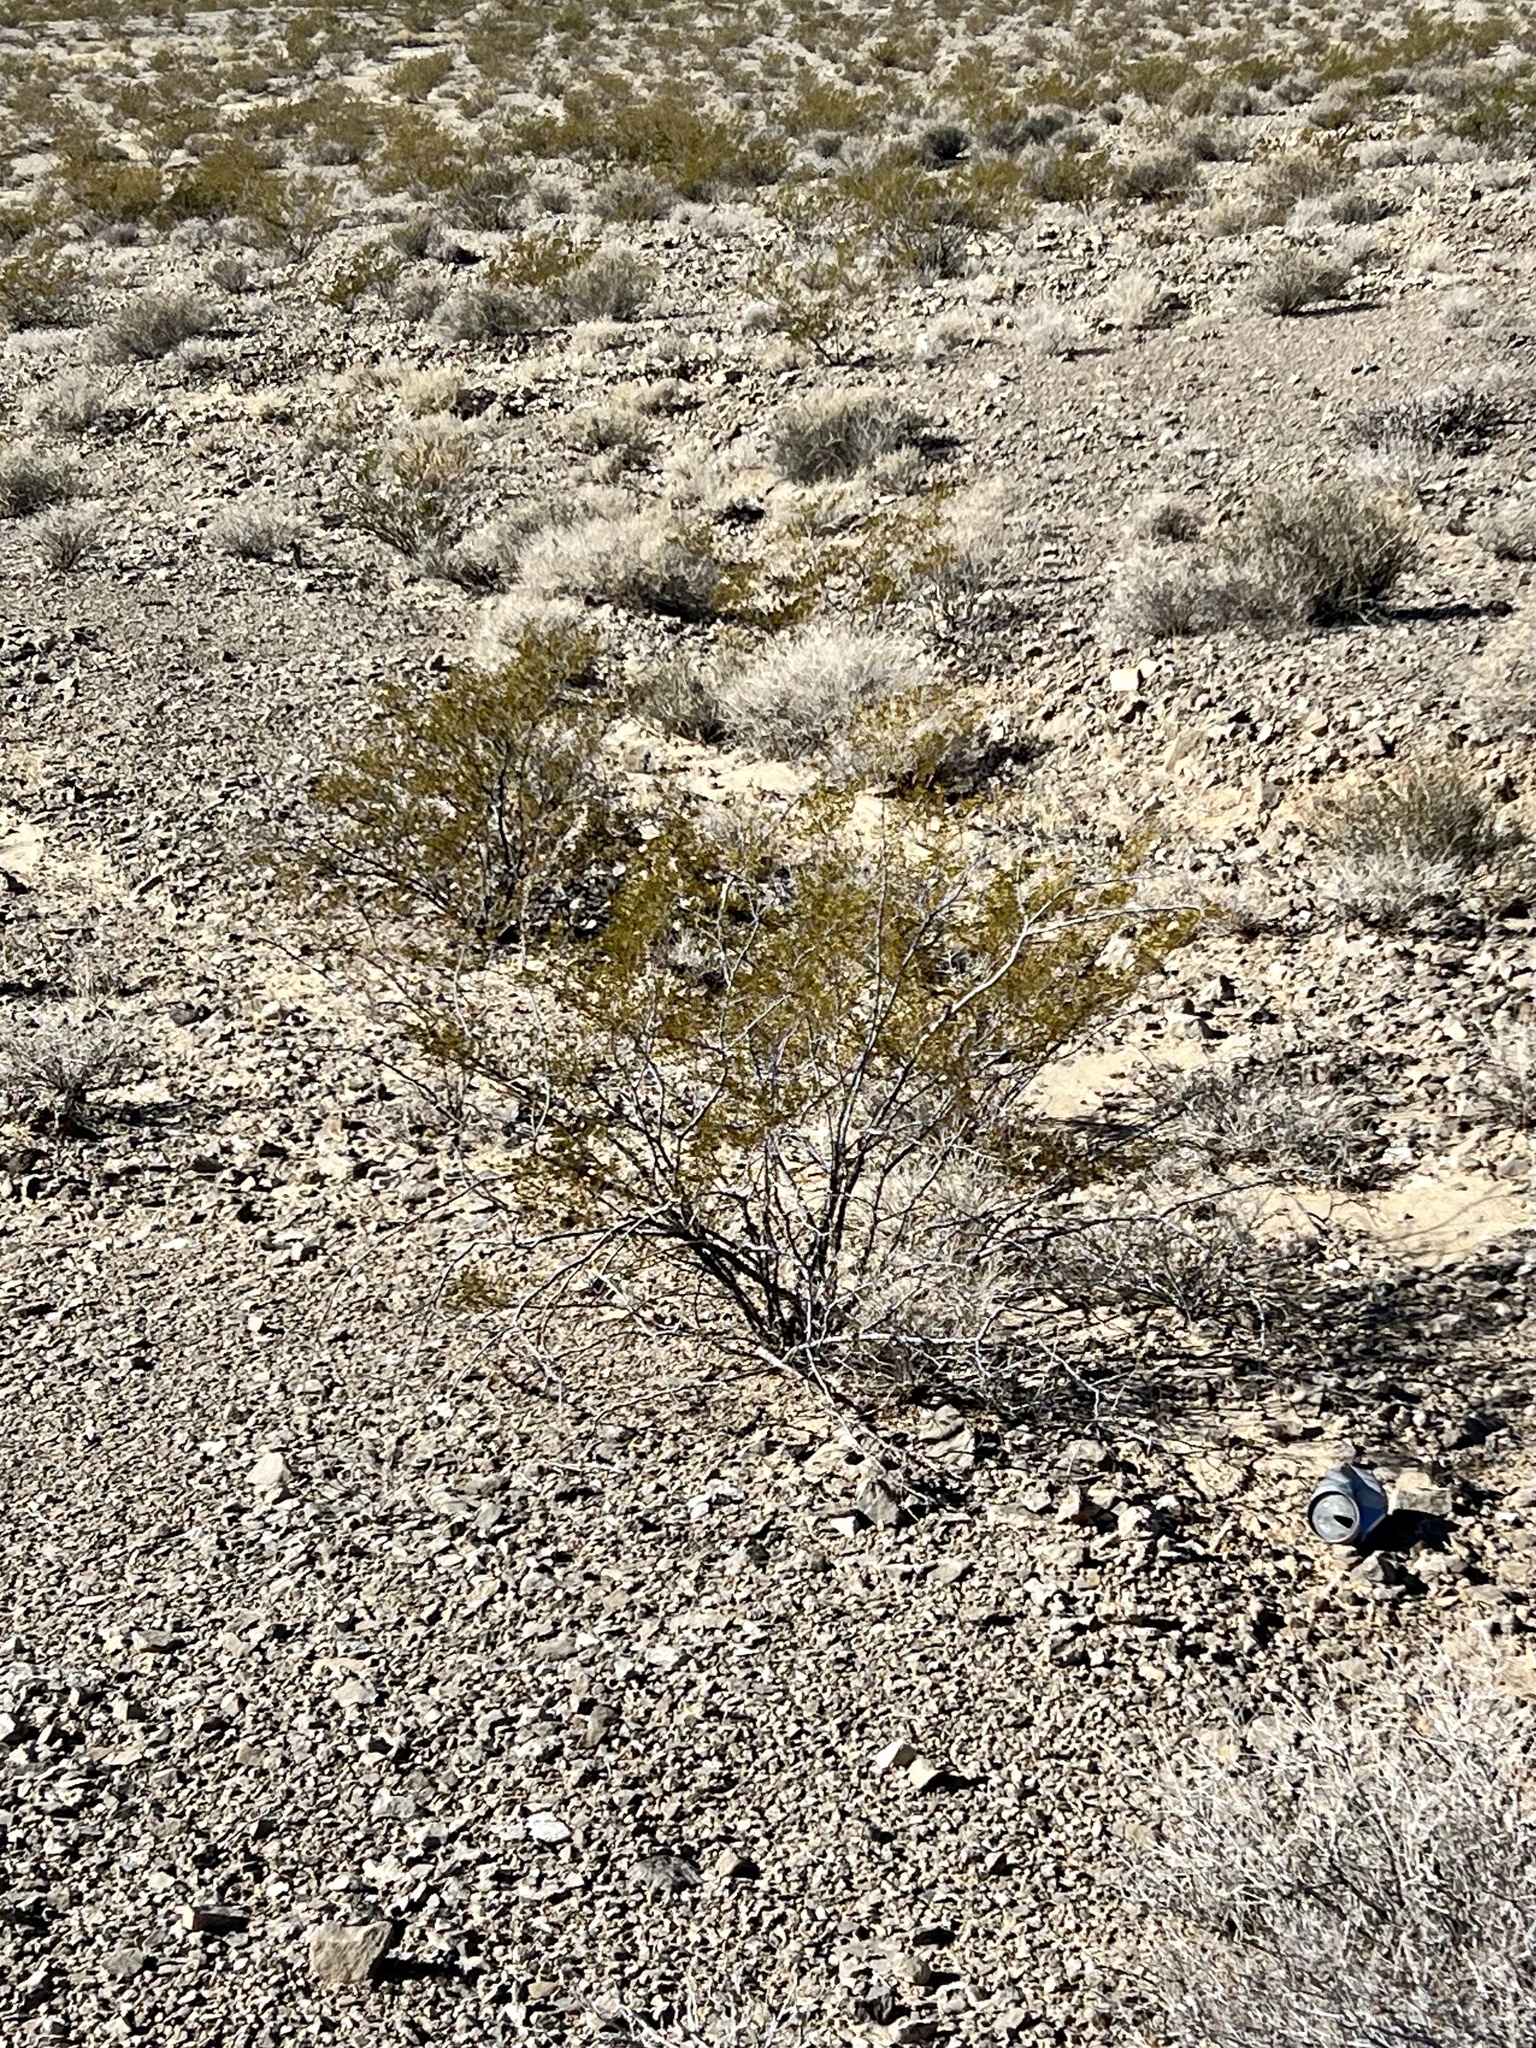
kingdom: Plantae
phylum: Tracheophyta
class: Magnoliopsida
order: Zygophyllales
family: Zygophyllaceae
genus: Larrea
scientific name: Larrea tridentata
